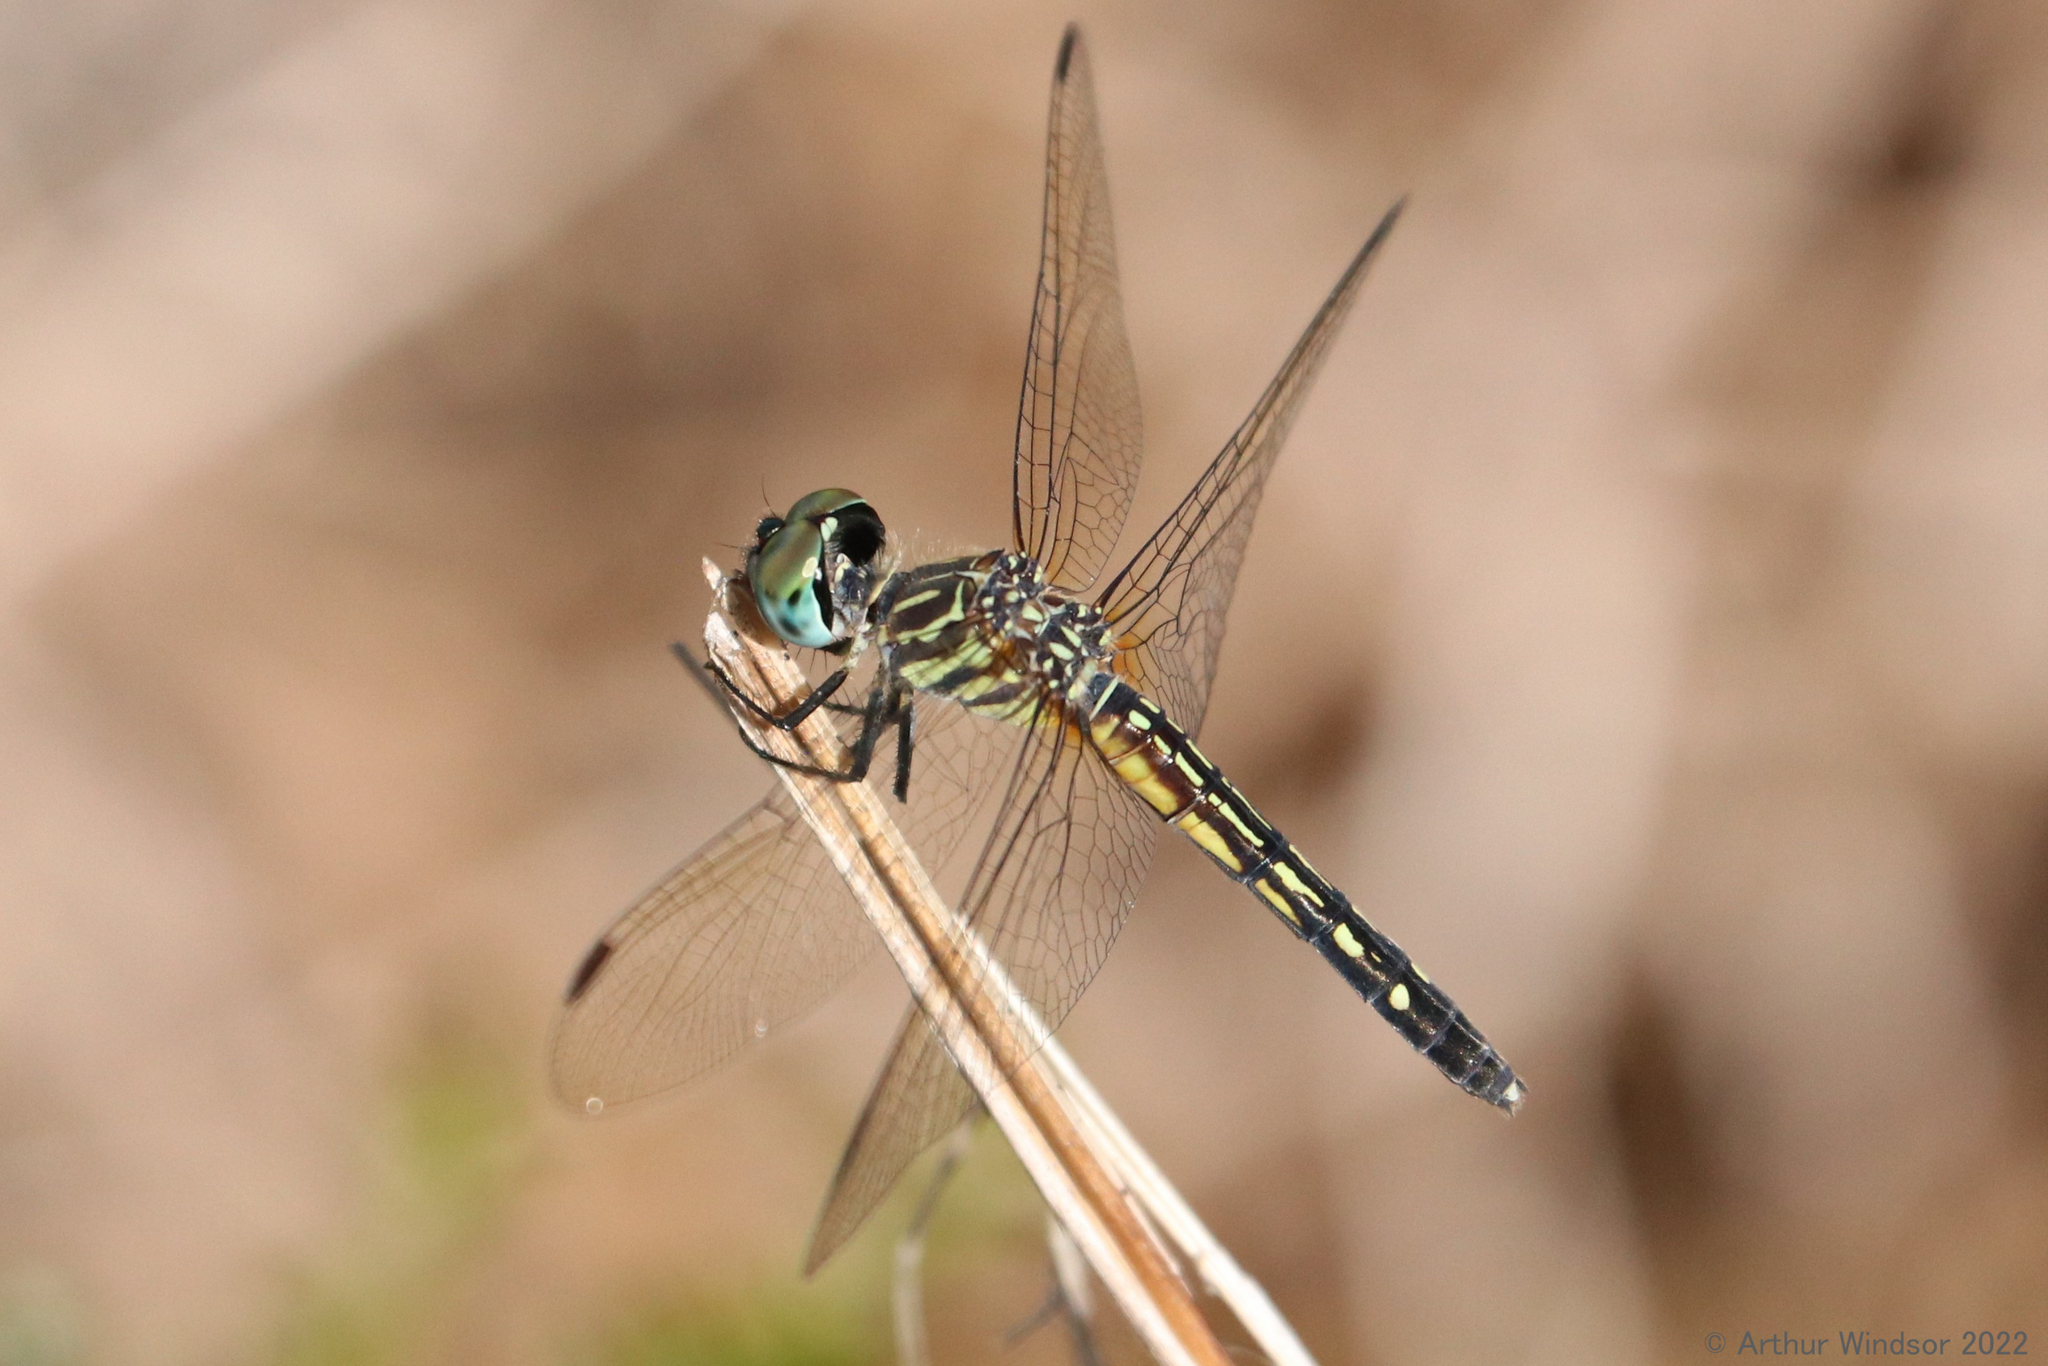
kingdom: Animalia
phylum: Arthropoda
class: Insecta
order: Odonata
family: Libellulidae
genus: Pachydiplax
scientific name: Pachydiplax longipennis
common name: Blue dasher
